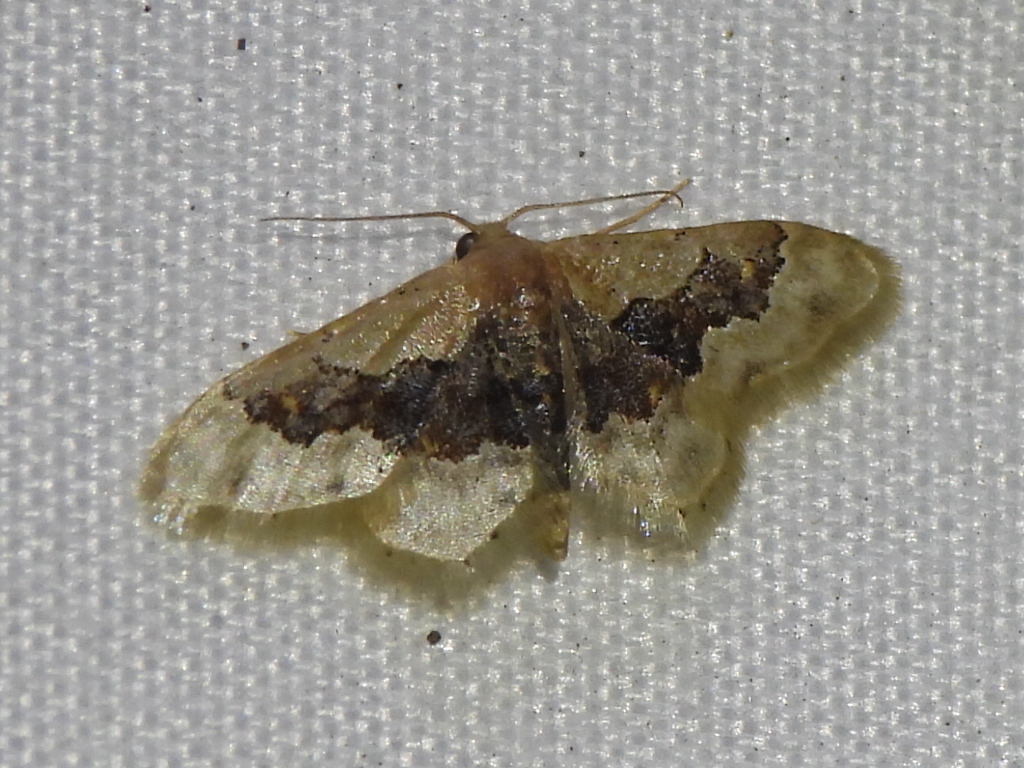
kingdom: Animalia
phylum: Arthropoda
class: Insecta
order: Lepidoptera
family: Geometridae
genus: Idaea
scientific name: Idaea gemmata
